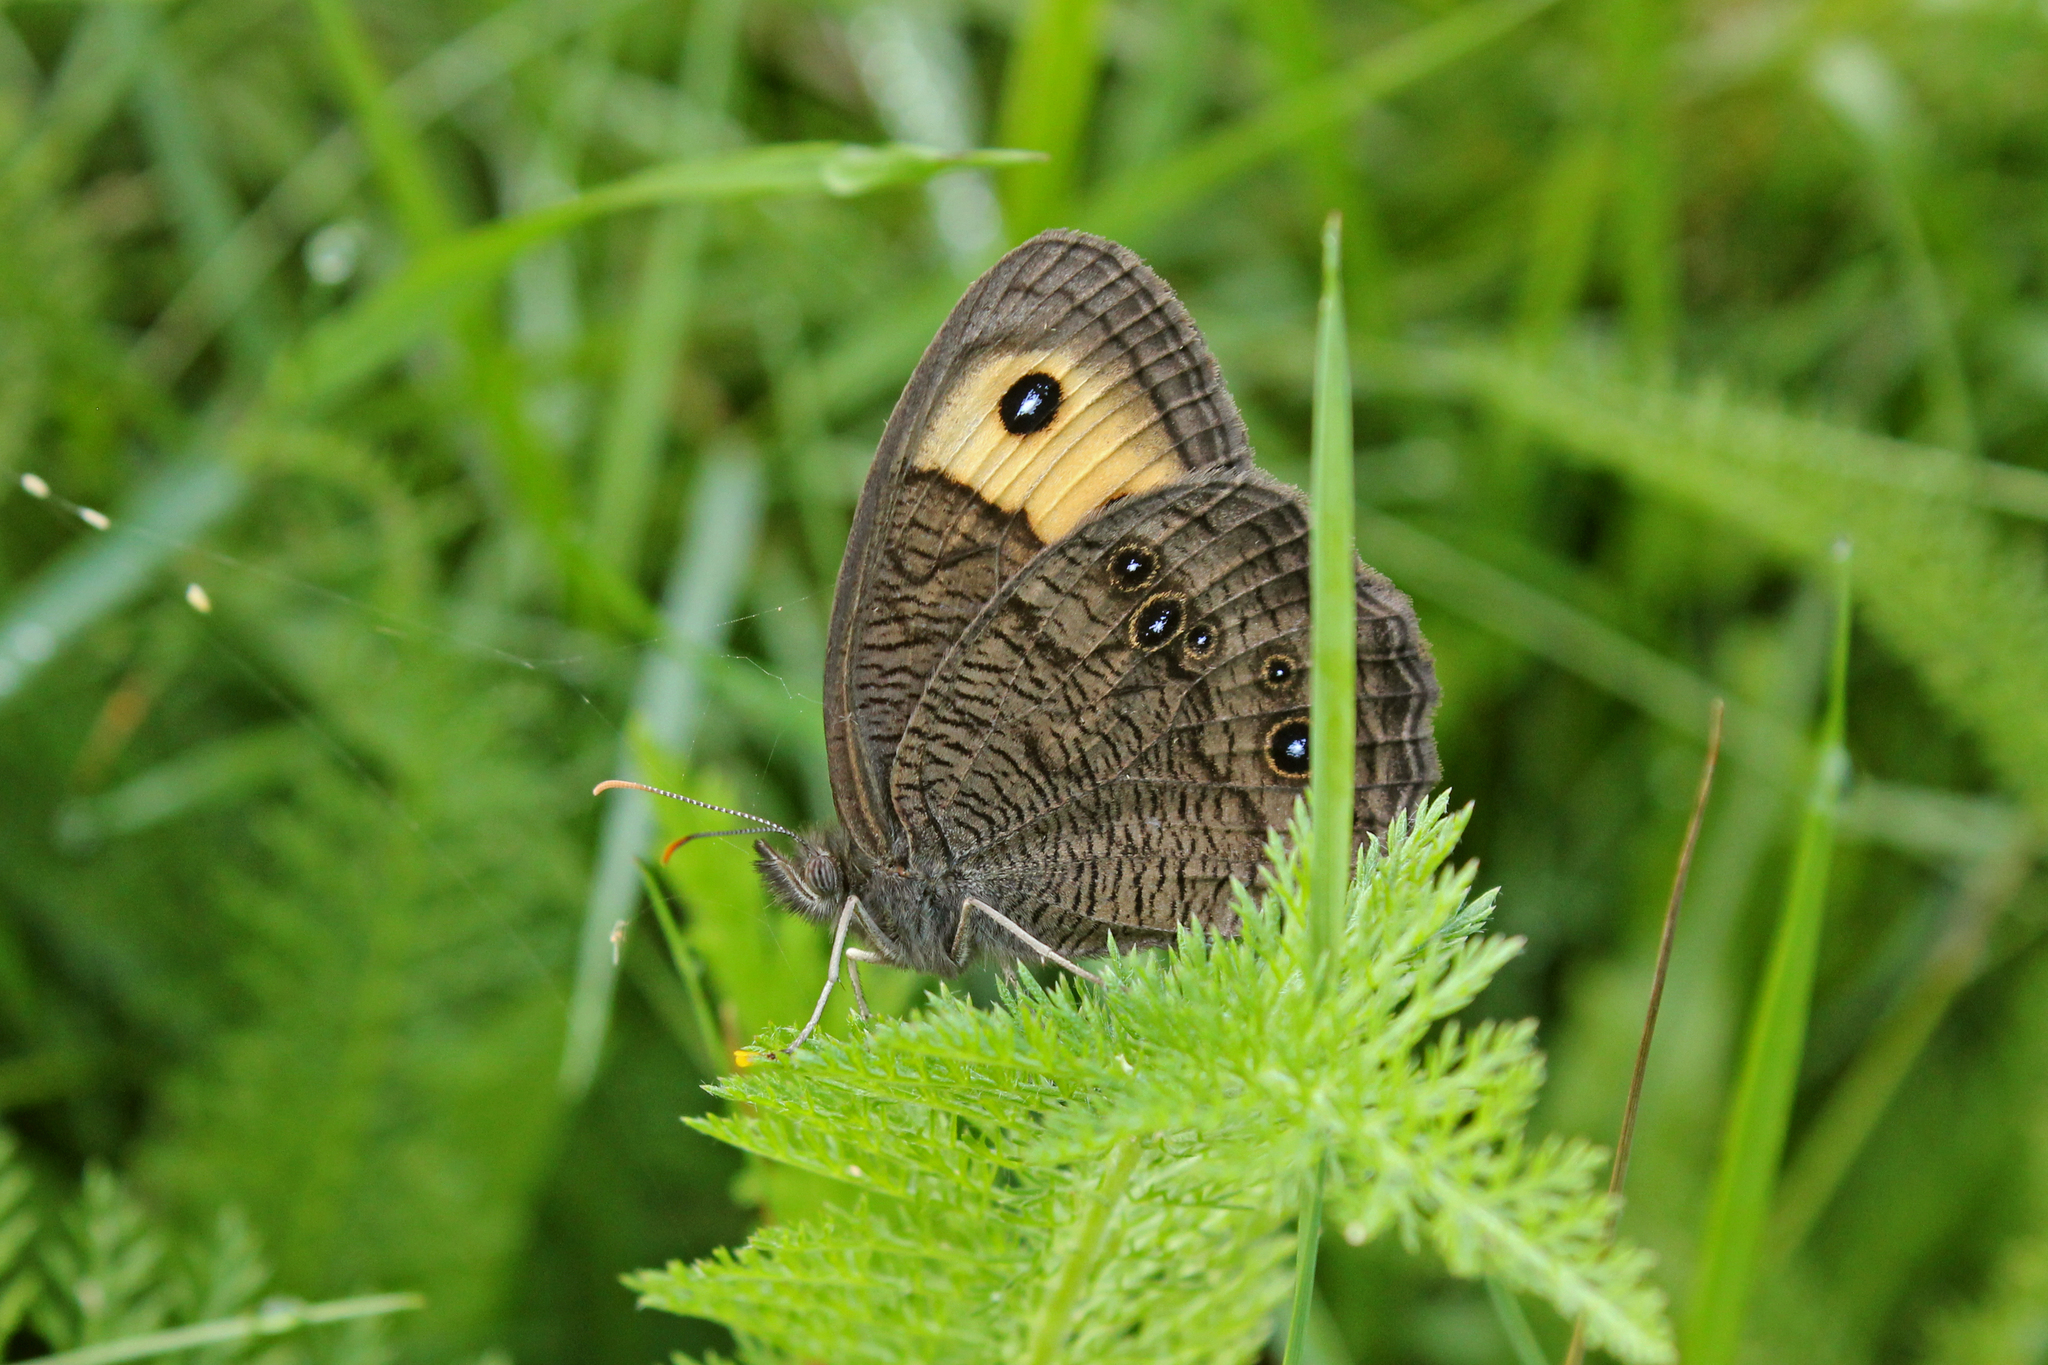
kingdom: Animalia
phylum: Arthropoda
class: Insecta
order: Lepidoptera
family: Nymphalidae
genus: Cercyonis
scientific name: Cercyonis pegala
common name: Common wood-nymph
